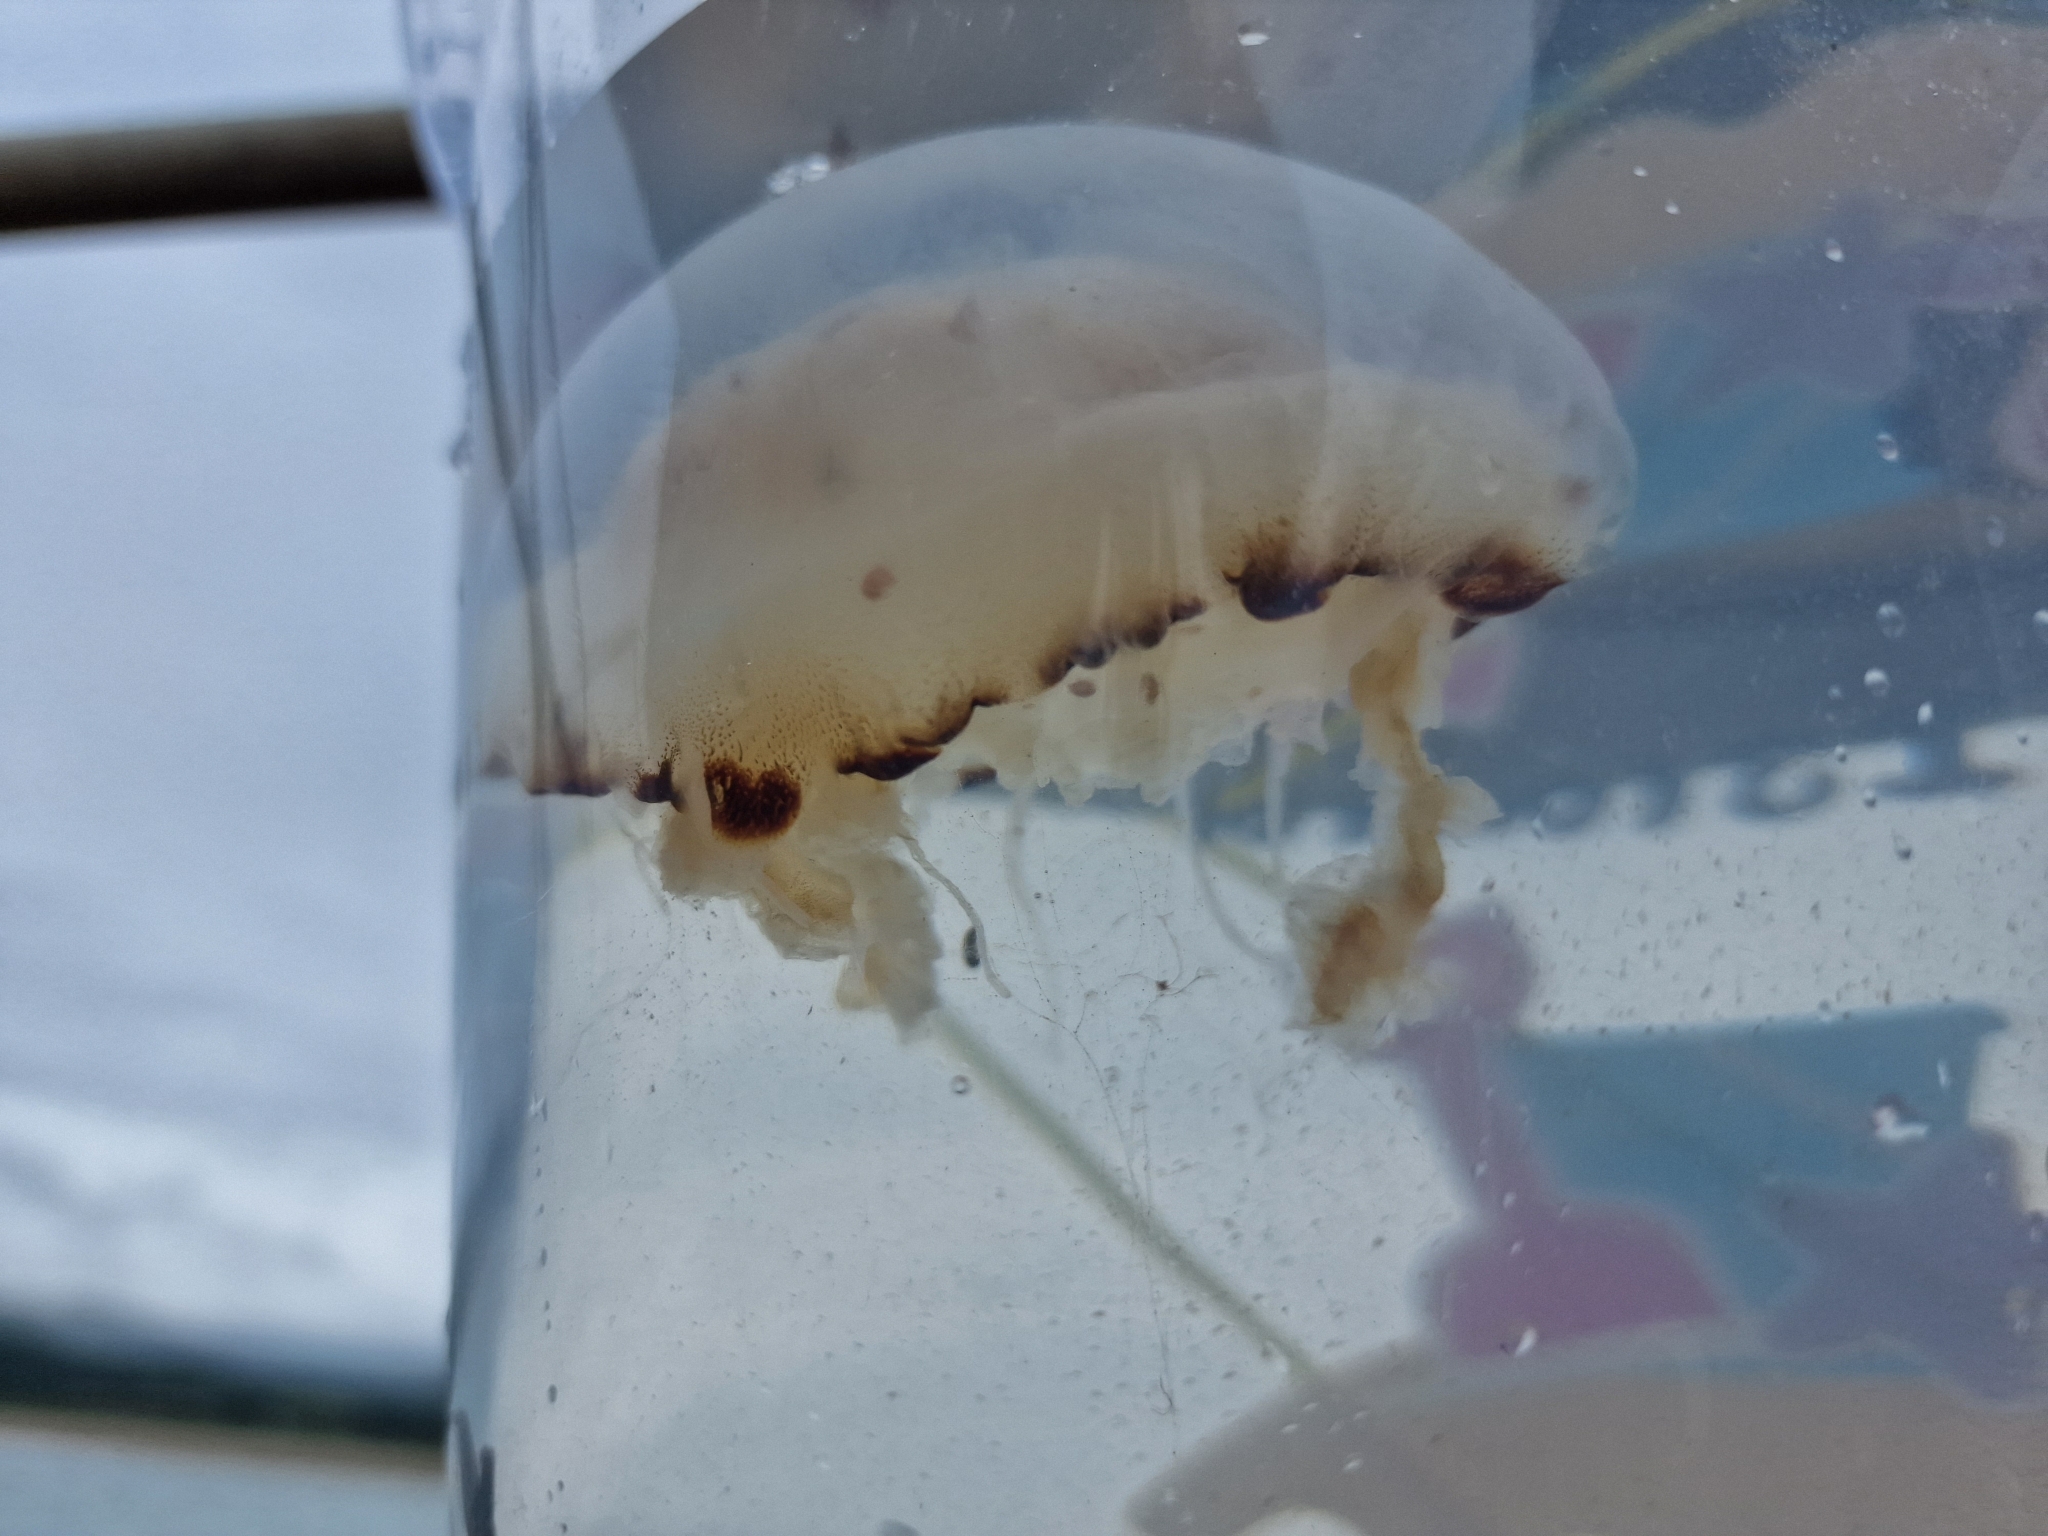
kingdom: Animalia
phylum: Cnidaria
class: Scyphozoa
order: Semaeostomeae
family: Pelagiidae
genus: Chrysaora
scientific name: Chrysaora hysoscella
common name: Compass jellyfish
